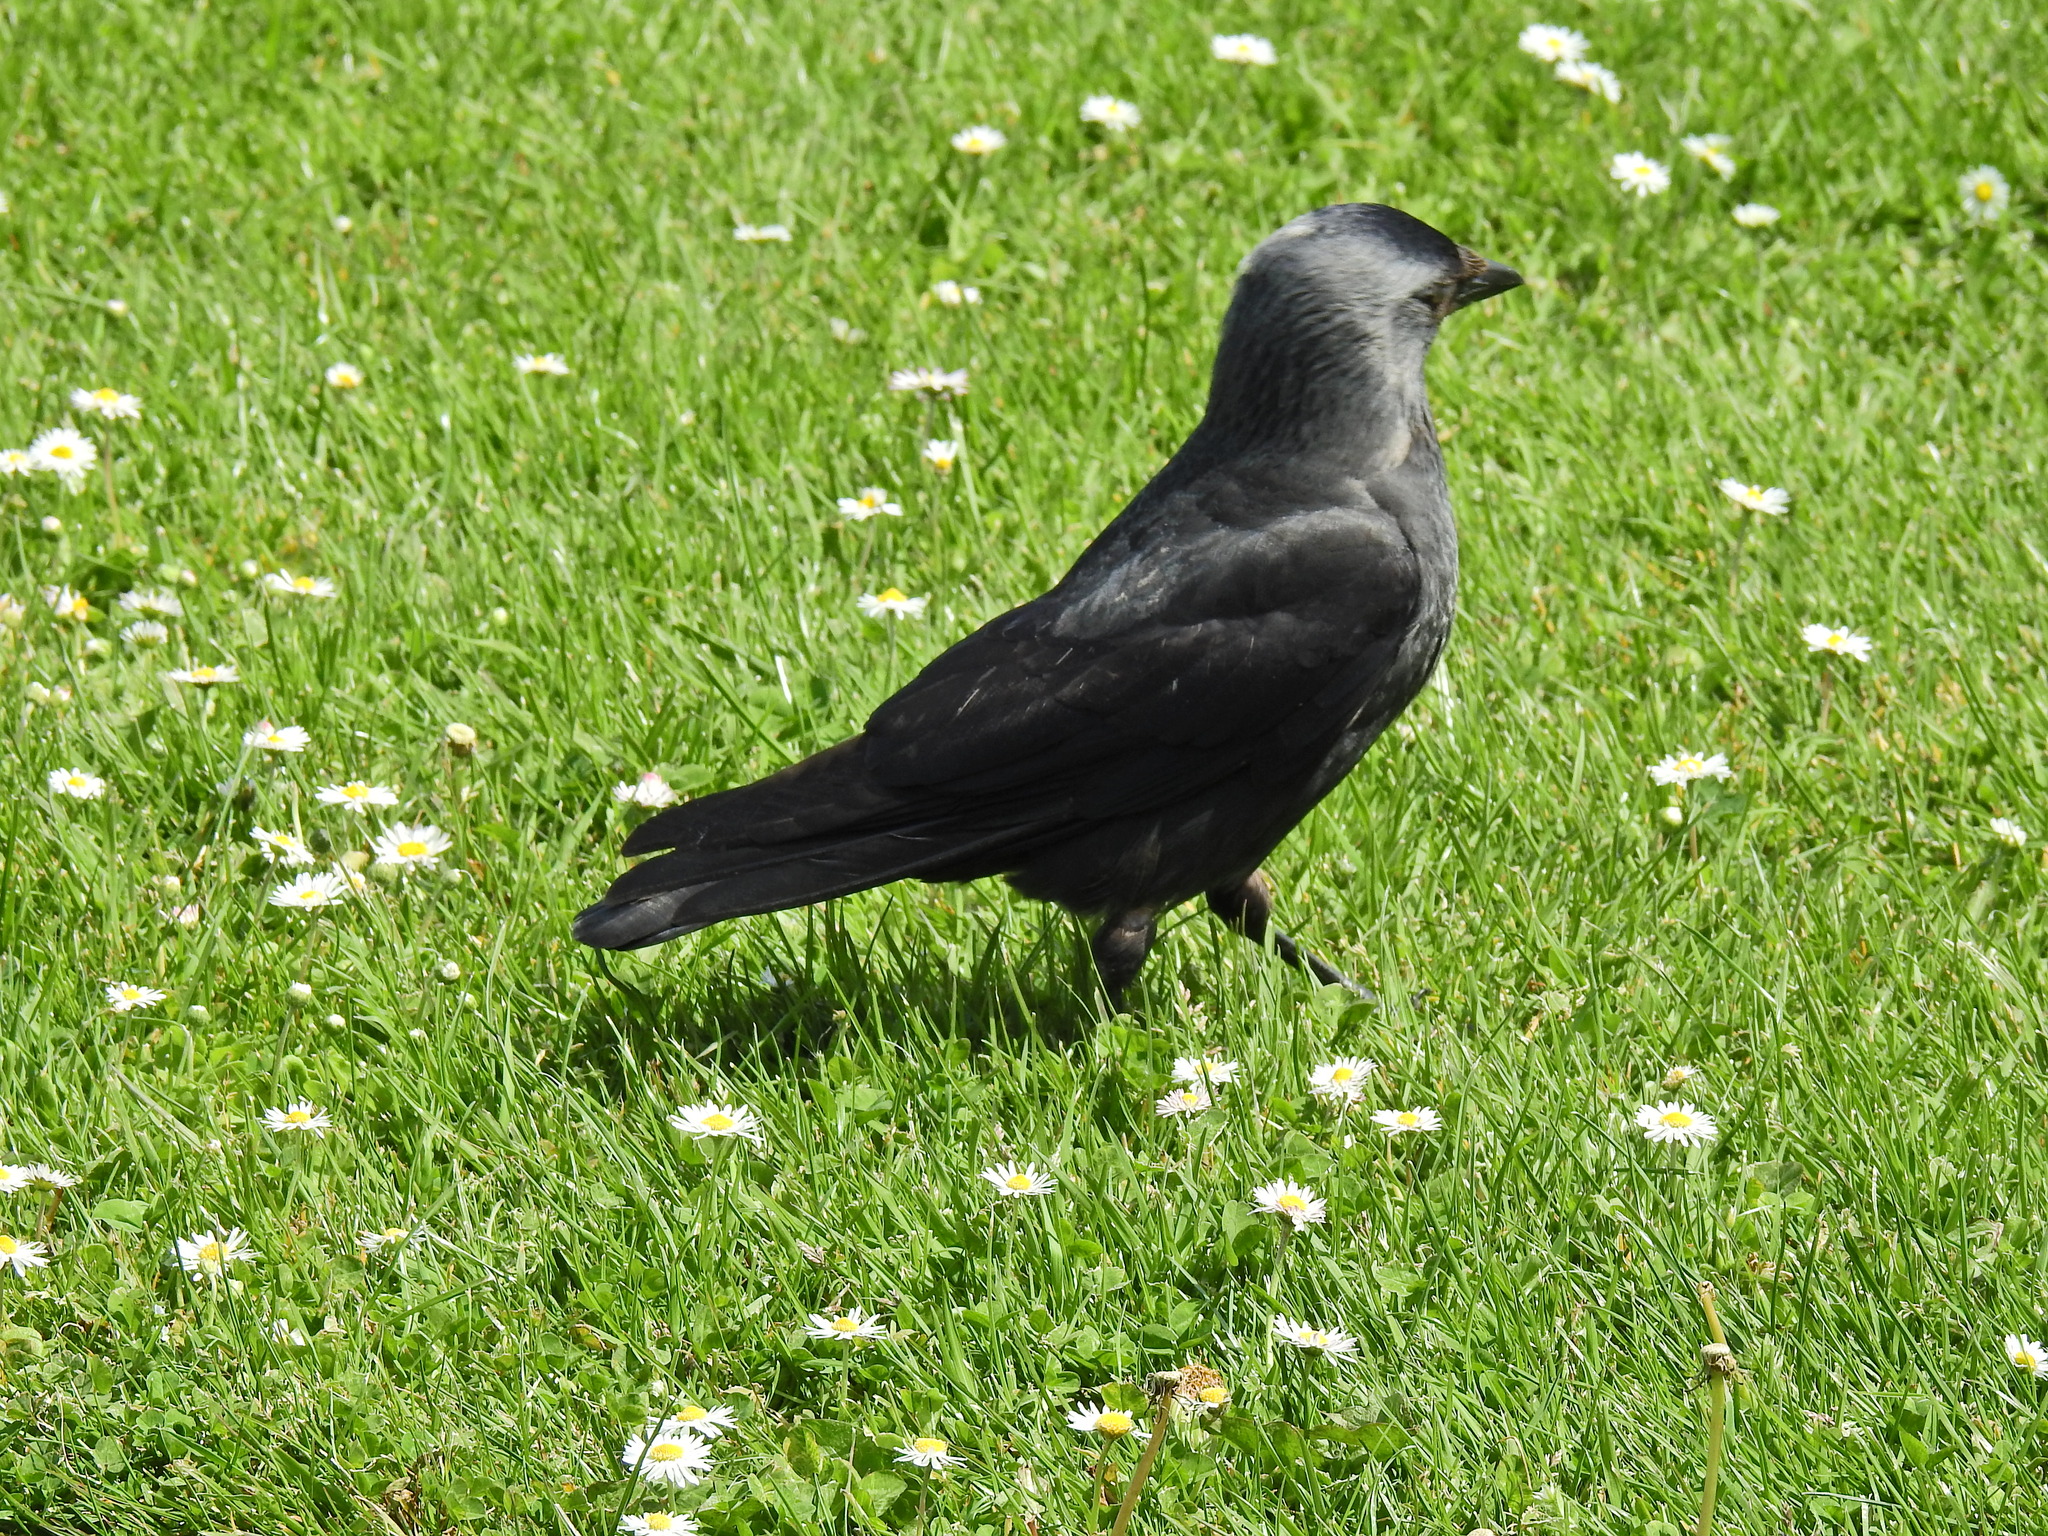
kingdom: Animalia
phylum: Chordata
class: Aves
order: Passeriformes
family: Corvidae
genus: Coloeus
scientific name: Coloeus monedula
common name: Western jackdaw
